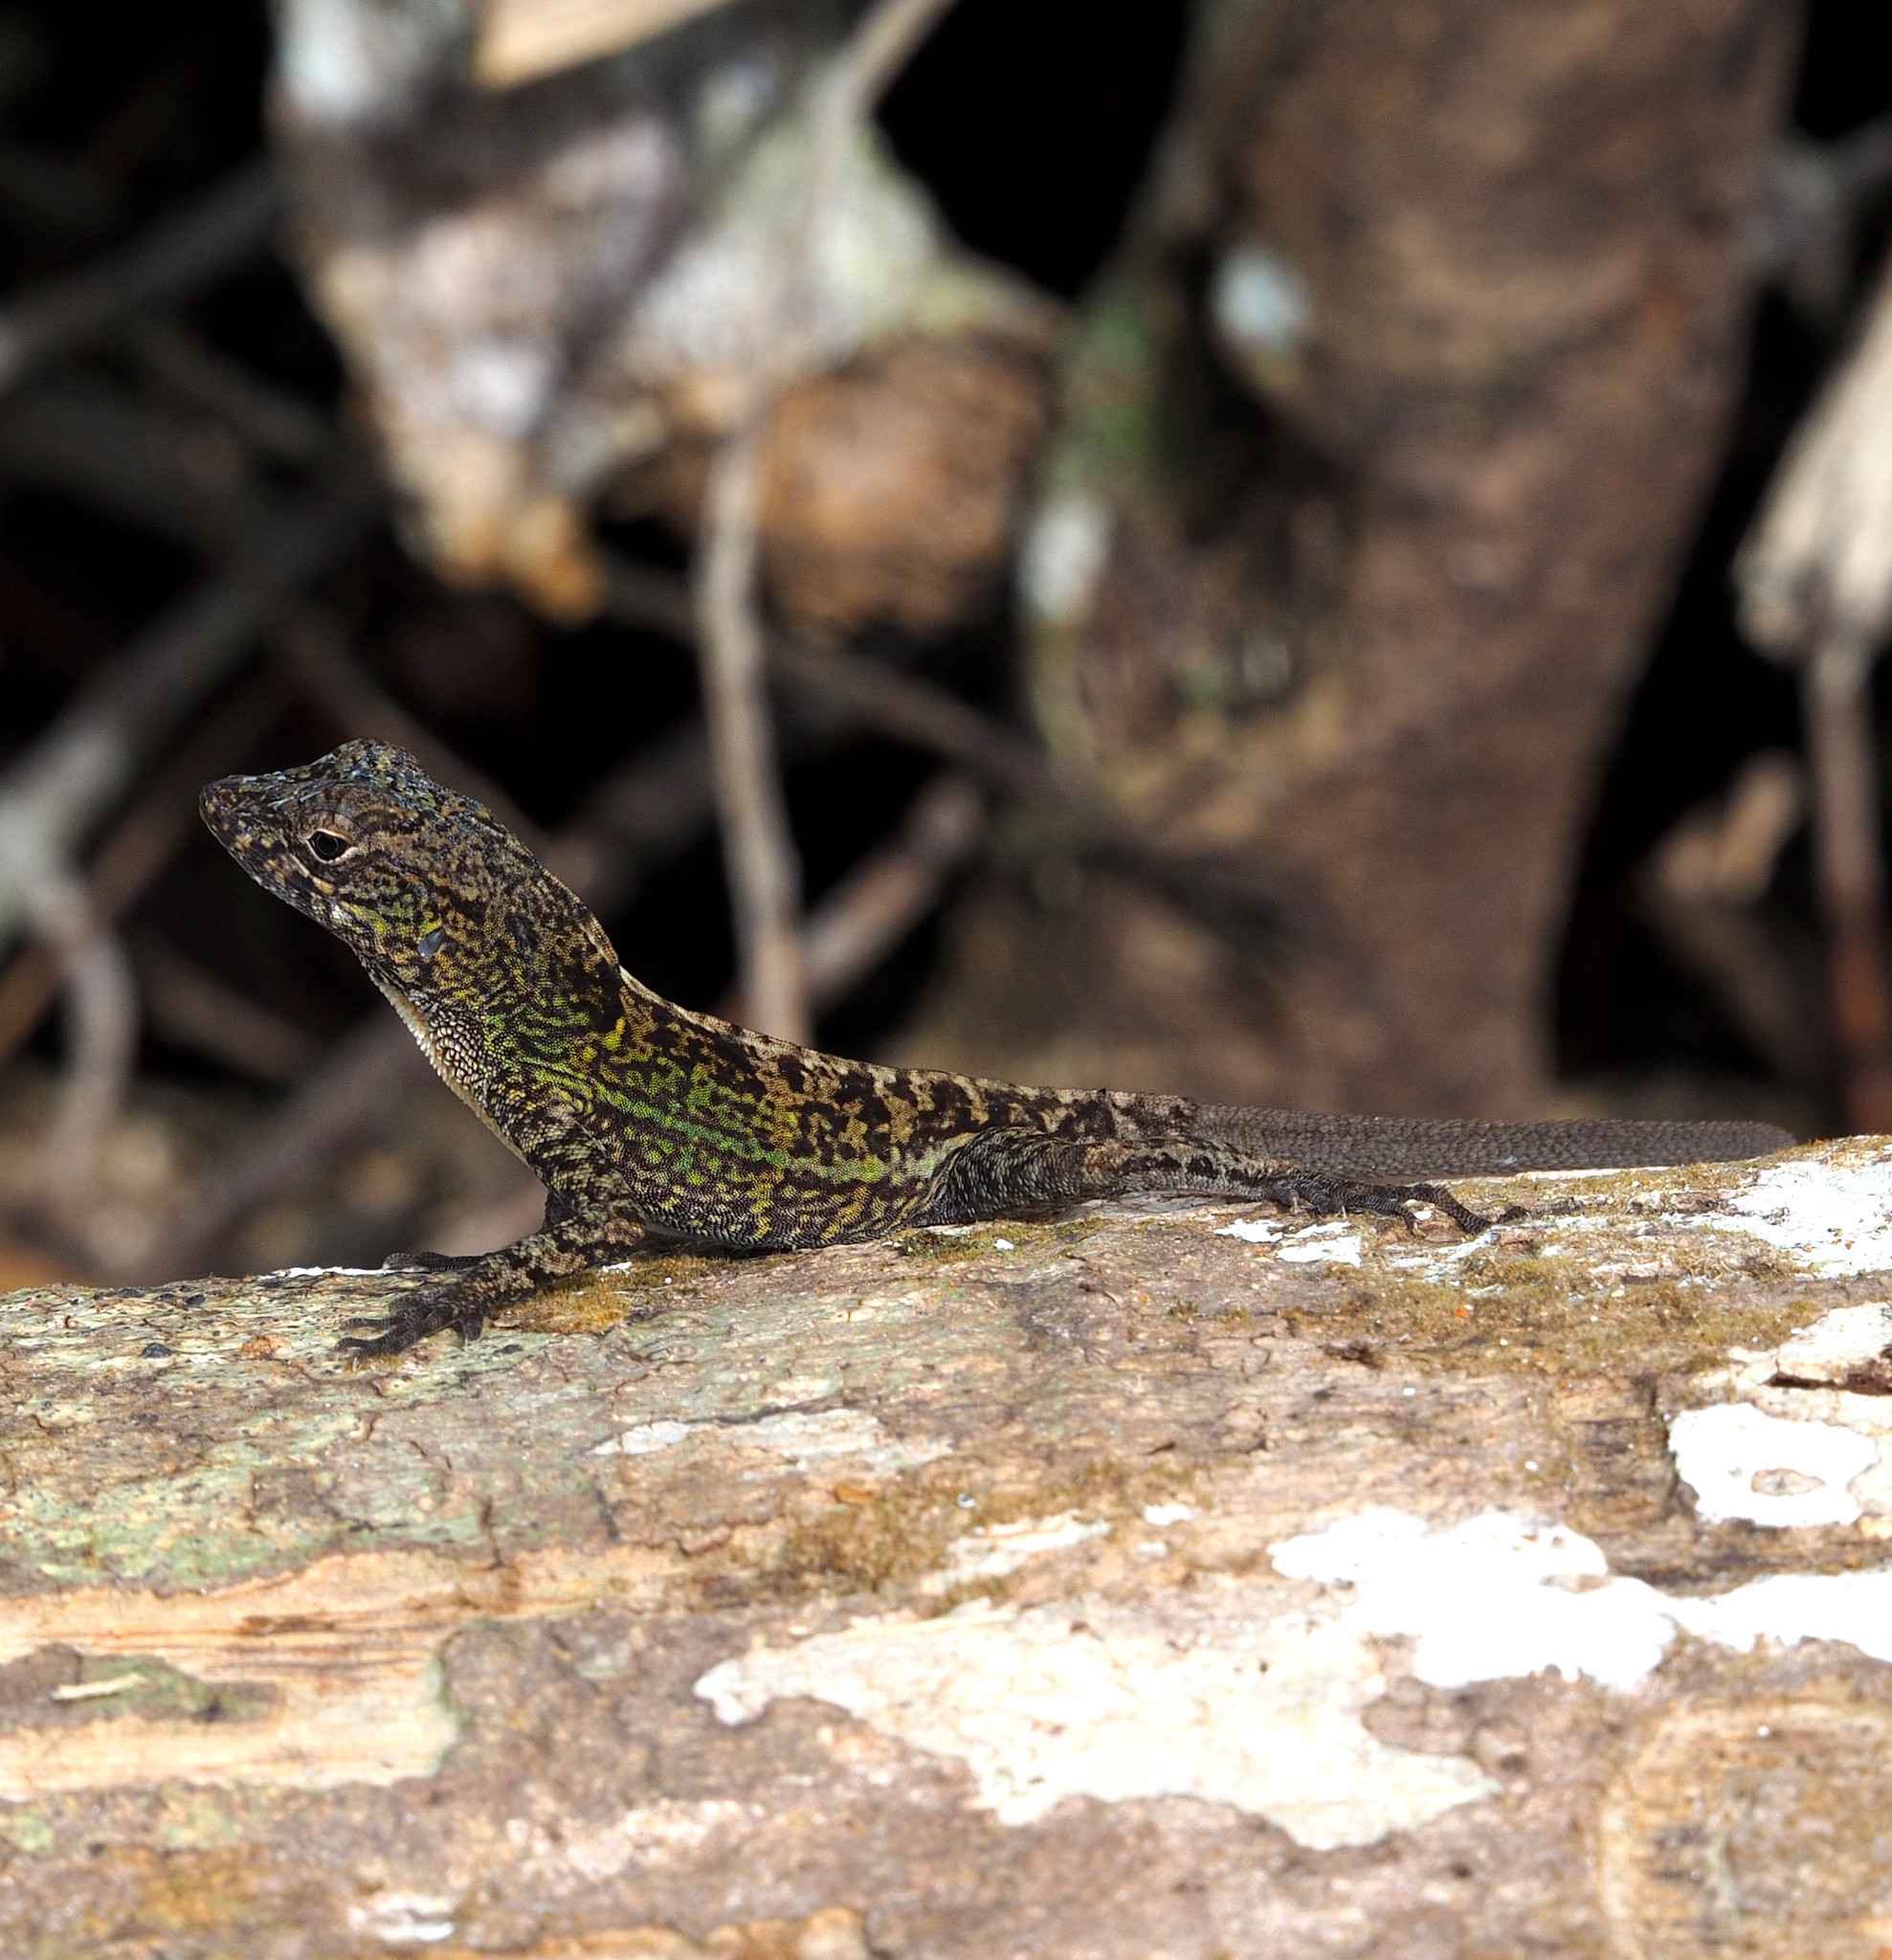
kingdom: Animalia
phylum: Chordata
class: Squamata
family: Dactyloidae
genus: Anolis
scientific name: Anolis allogus
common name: Bueycito anole
